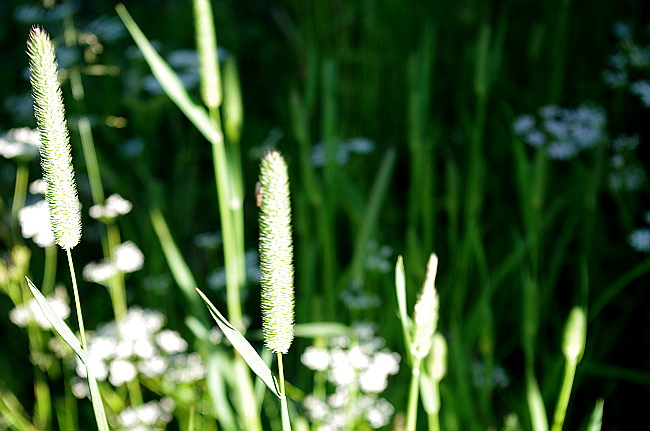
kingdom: Plantae
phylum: Tracheophyta
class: Liliopsida
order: Poales
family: Poaceae
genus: Phleum
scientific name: Phleum pratense
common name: Timothy grass
